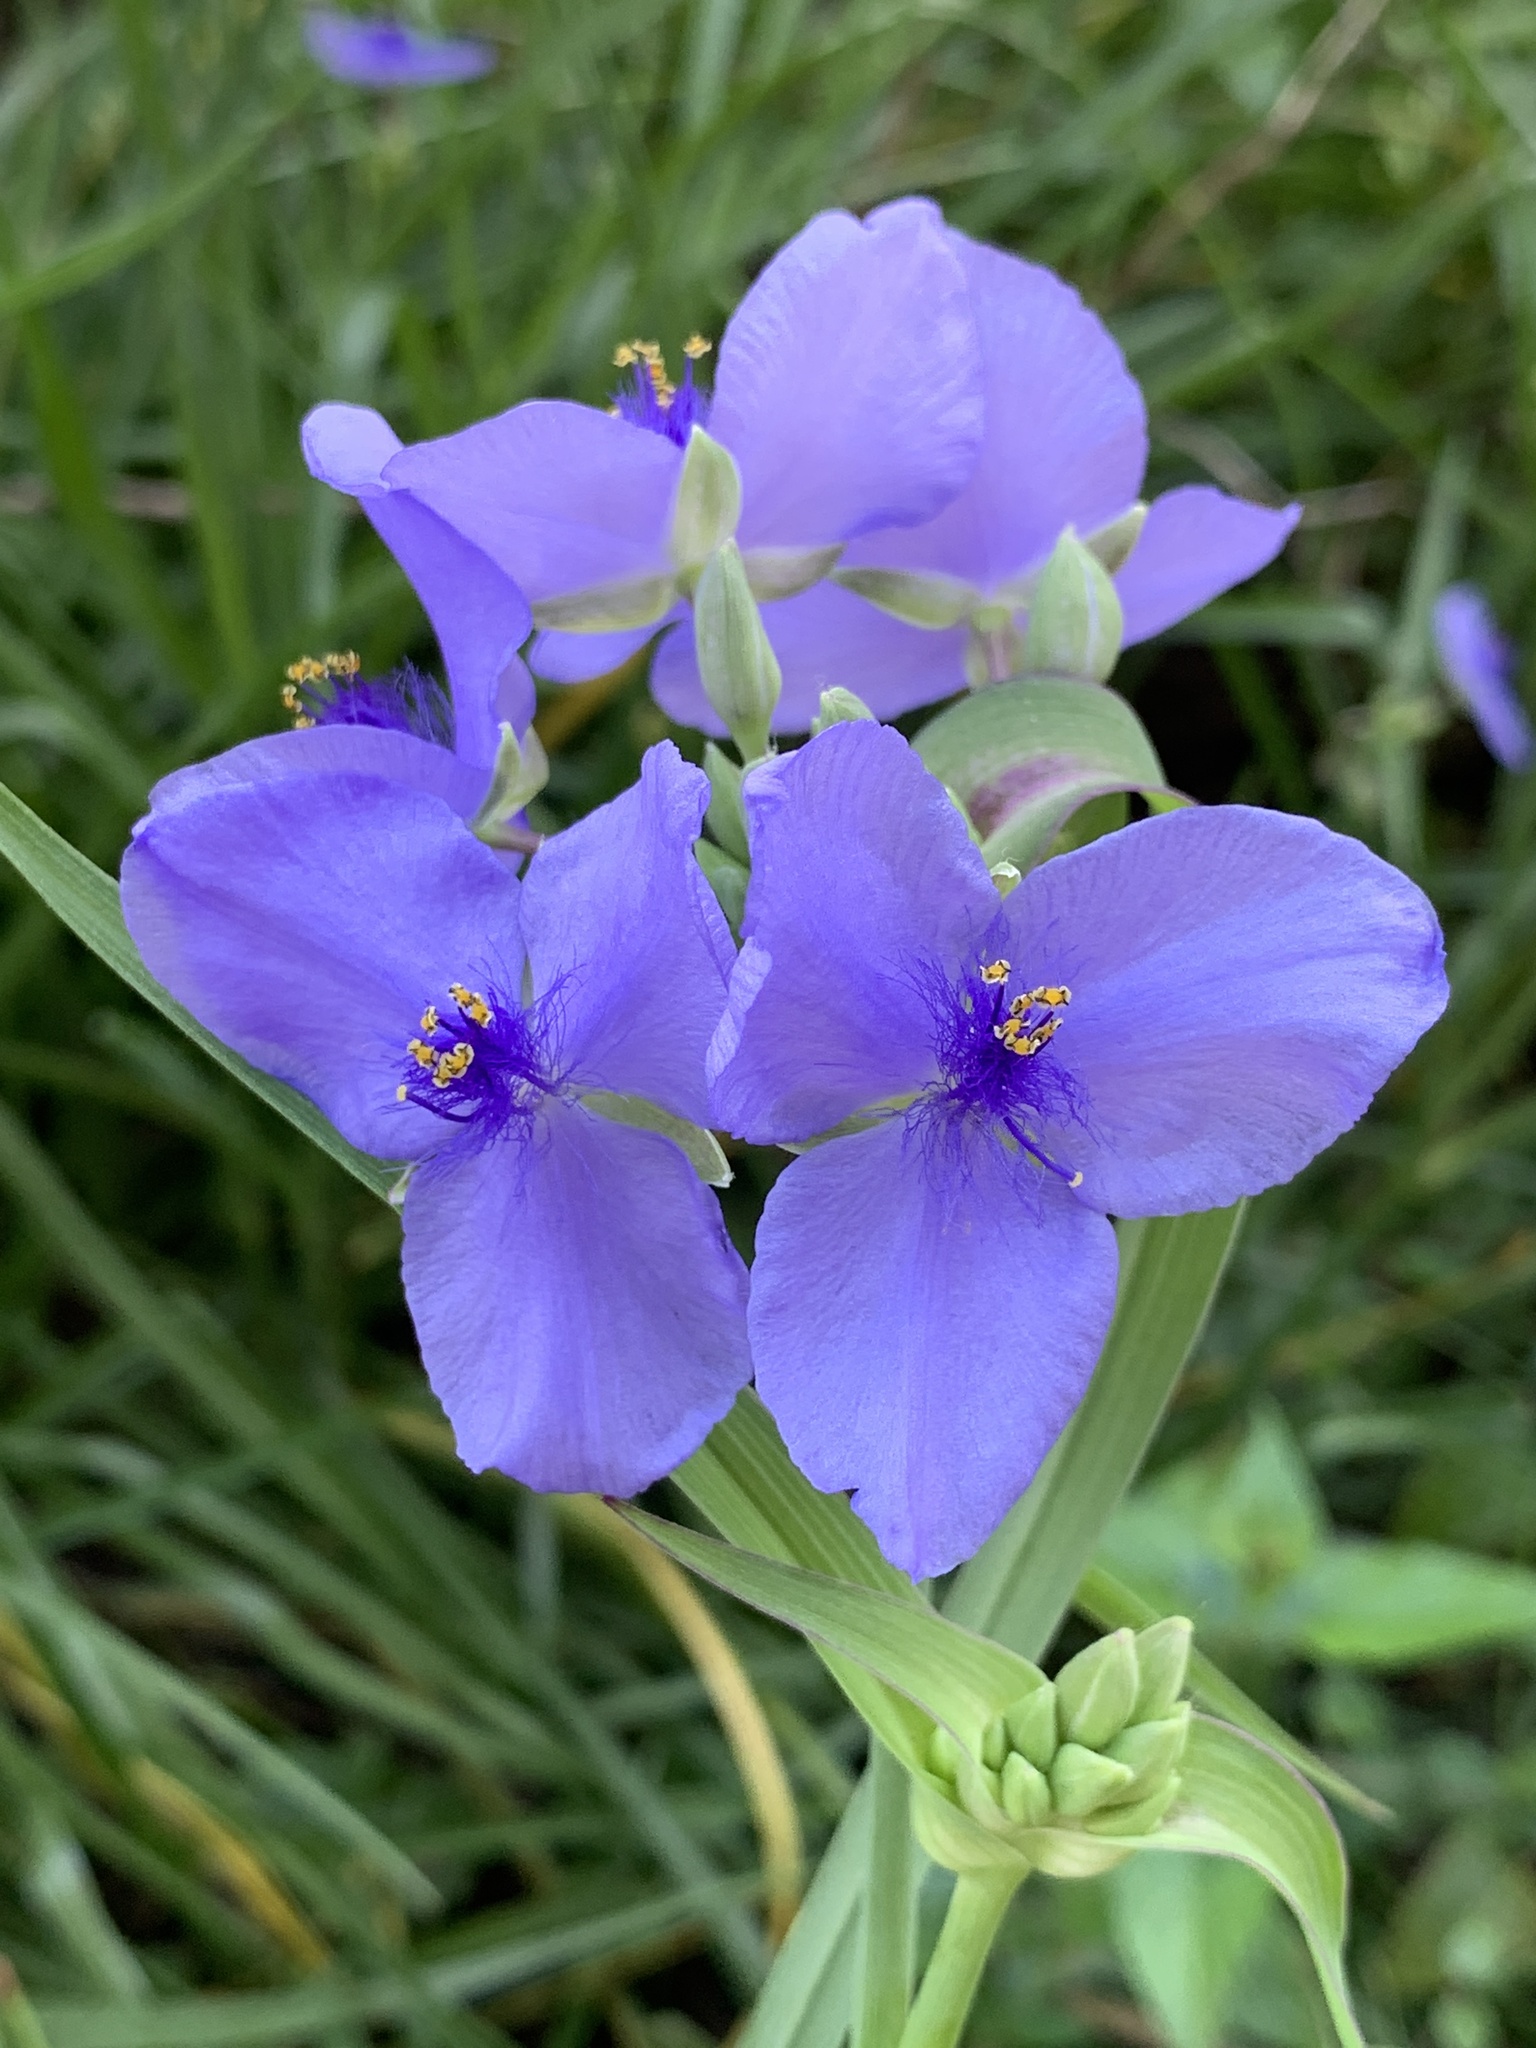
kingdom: Plantae
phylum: Tracheophyta
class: Liliopsida
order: Commelinales
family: Commelinaceae
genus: Tradescantia
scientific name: Tradescantia ohiensis
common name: Ohio spiderwort
